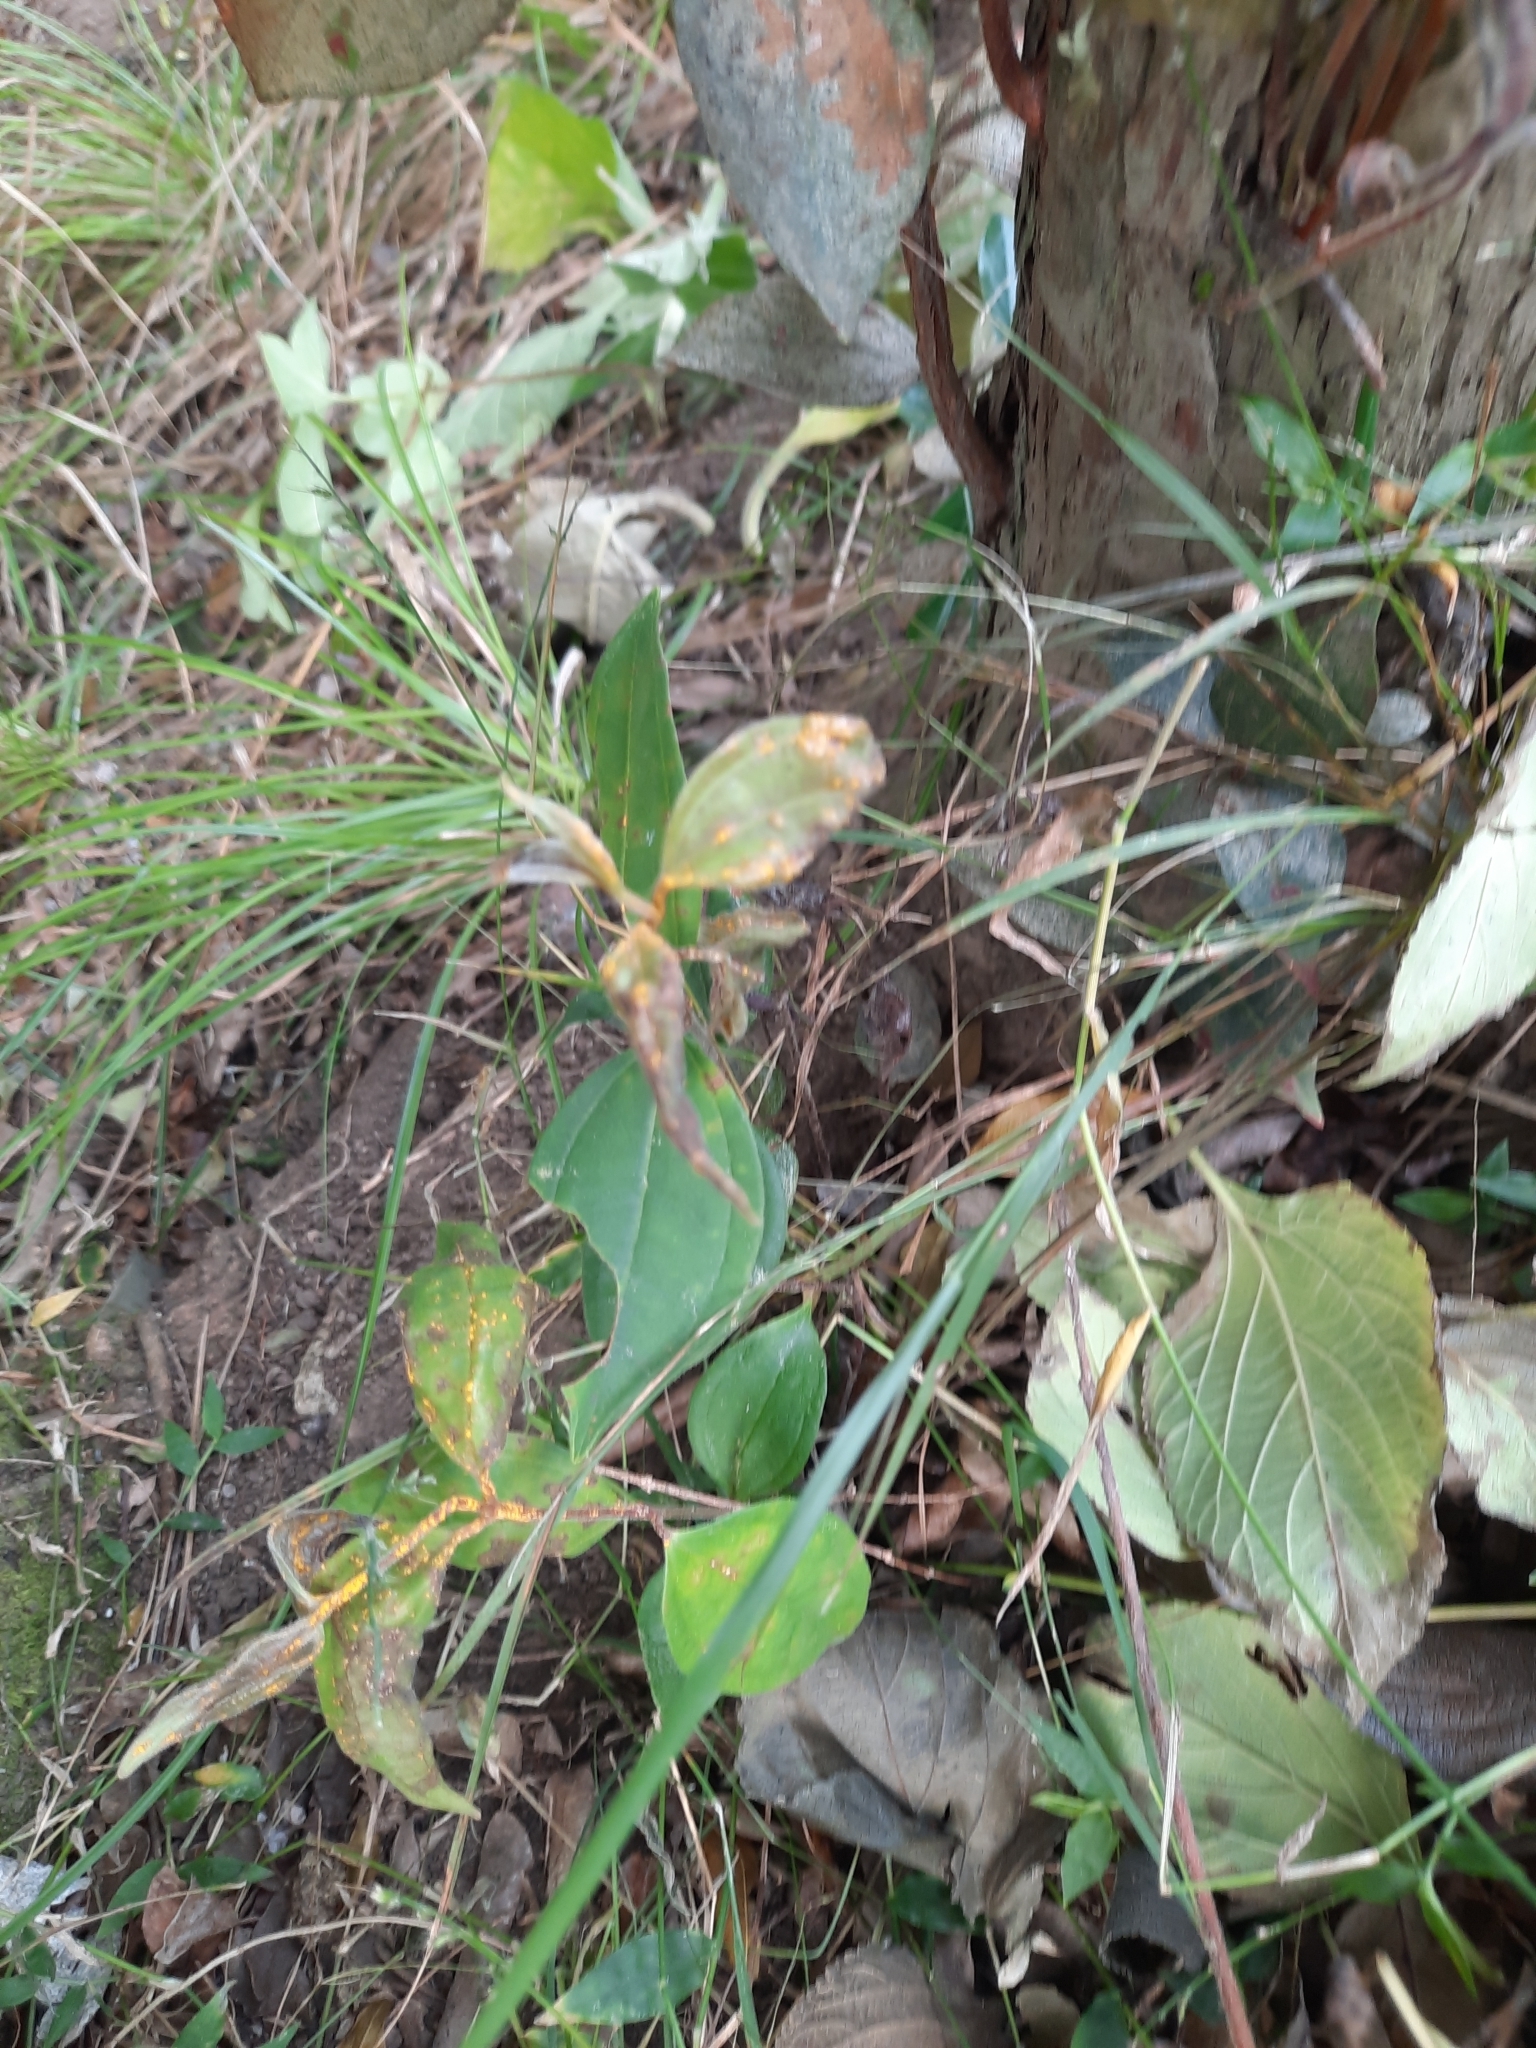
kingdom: Fungi
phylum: Basidiomycota
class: Pucciniomycetes
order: Pucciniales
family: Sphaerophragmiaceae
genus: Austropuccinia
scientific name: Austropuccinia psidii
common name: Myrtle rust
